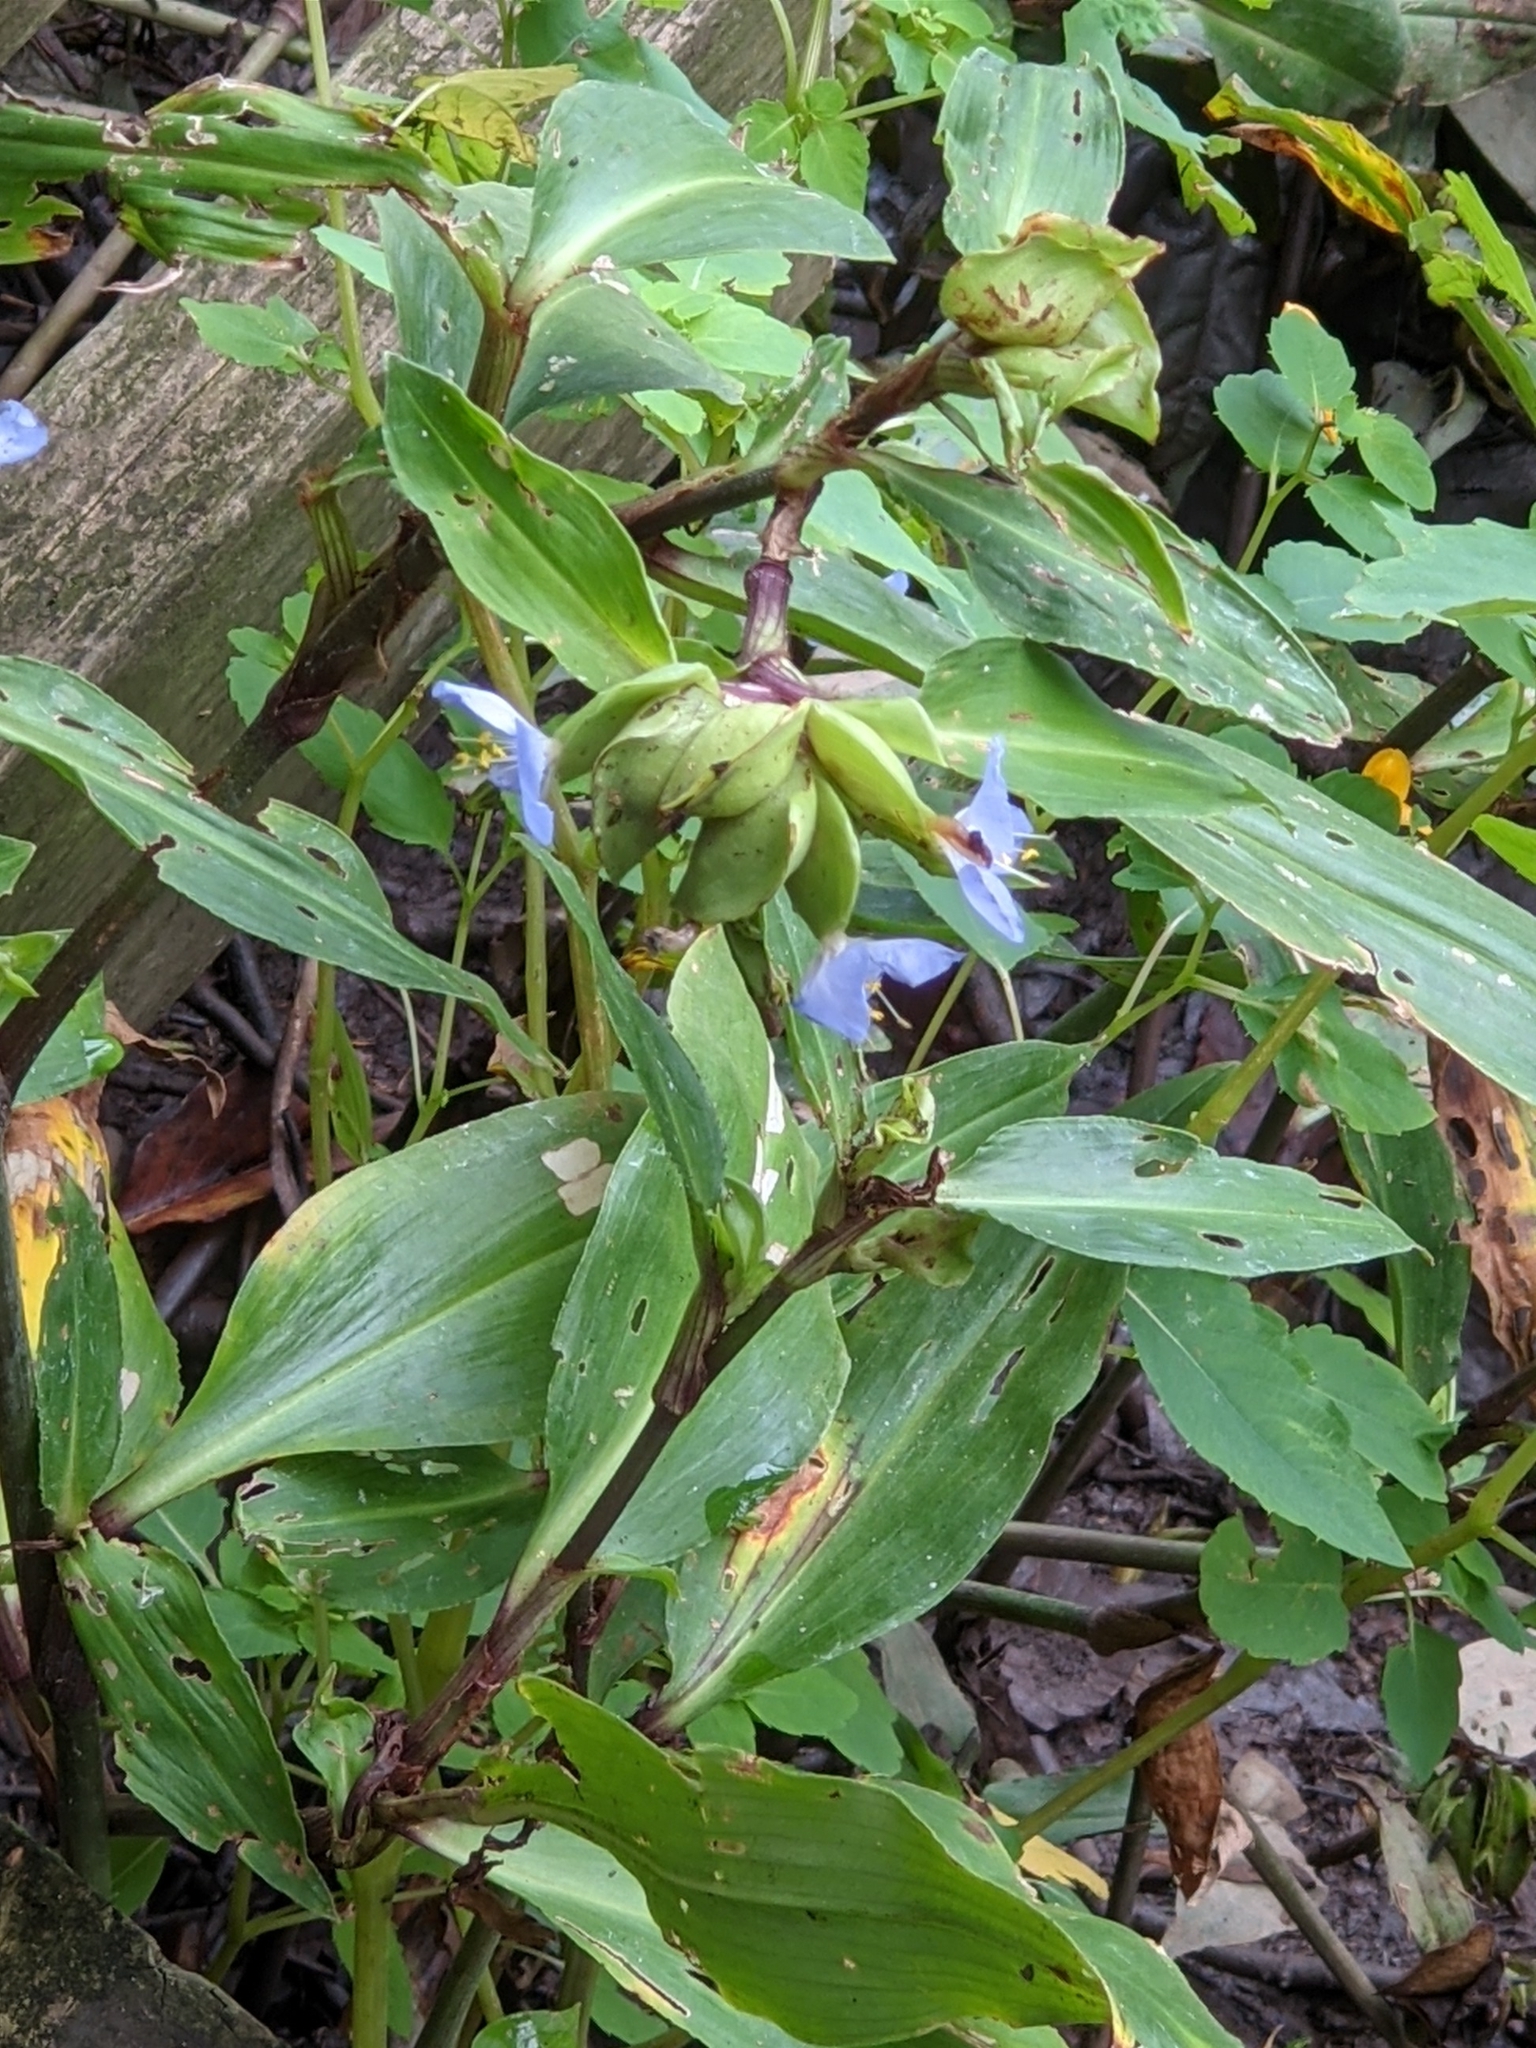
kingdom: Plantae
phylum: Tracheophyta
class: Liliopsida
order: Commelinales
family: Commelinaceae
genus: Commelina
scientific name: Commelina virginica
